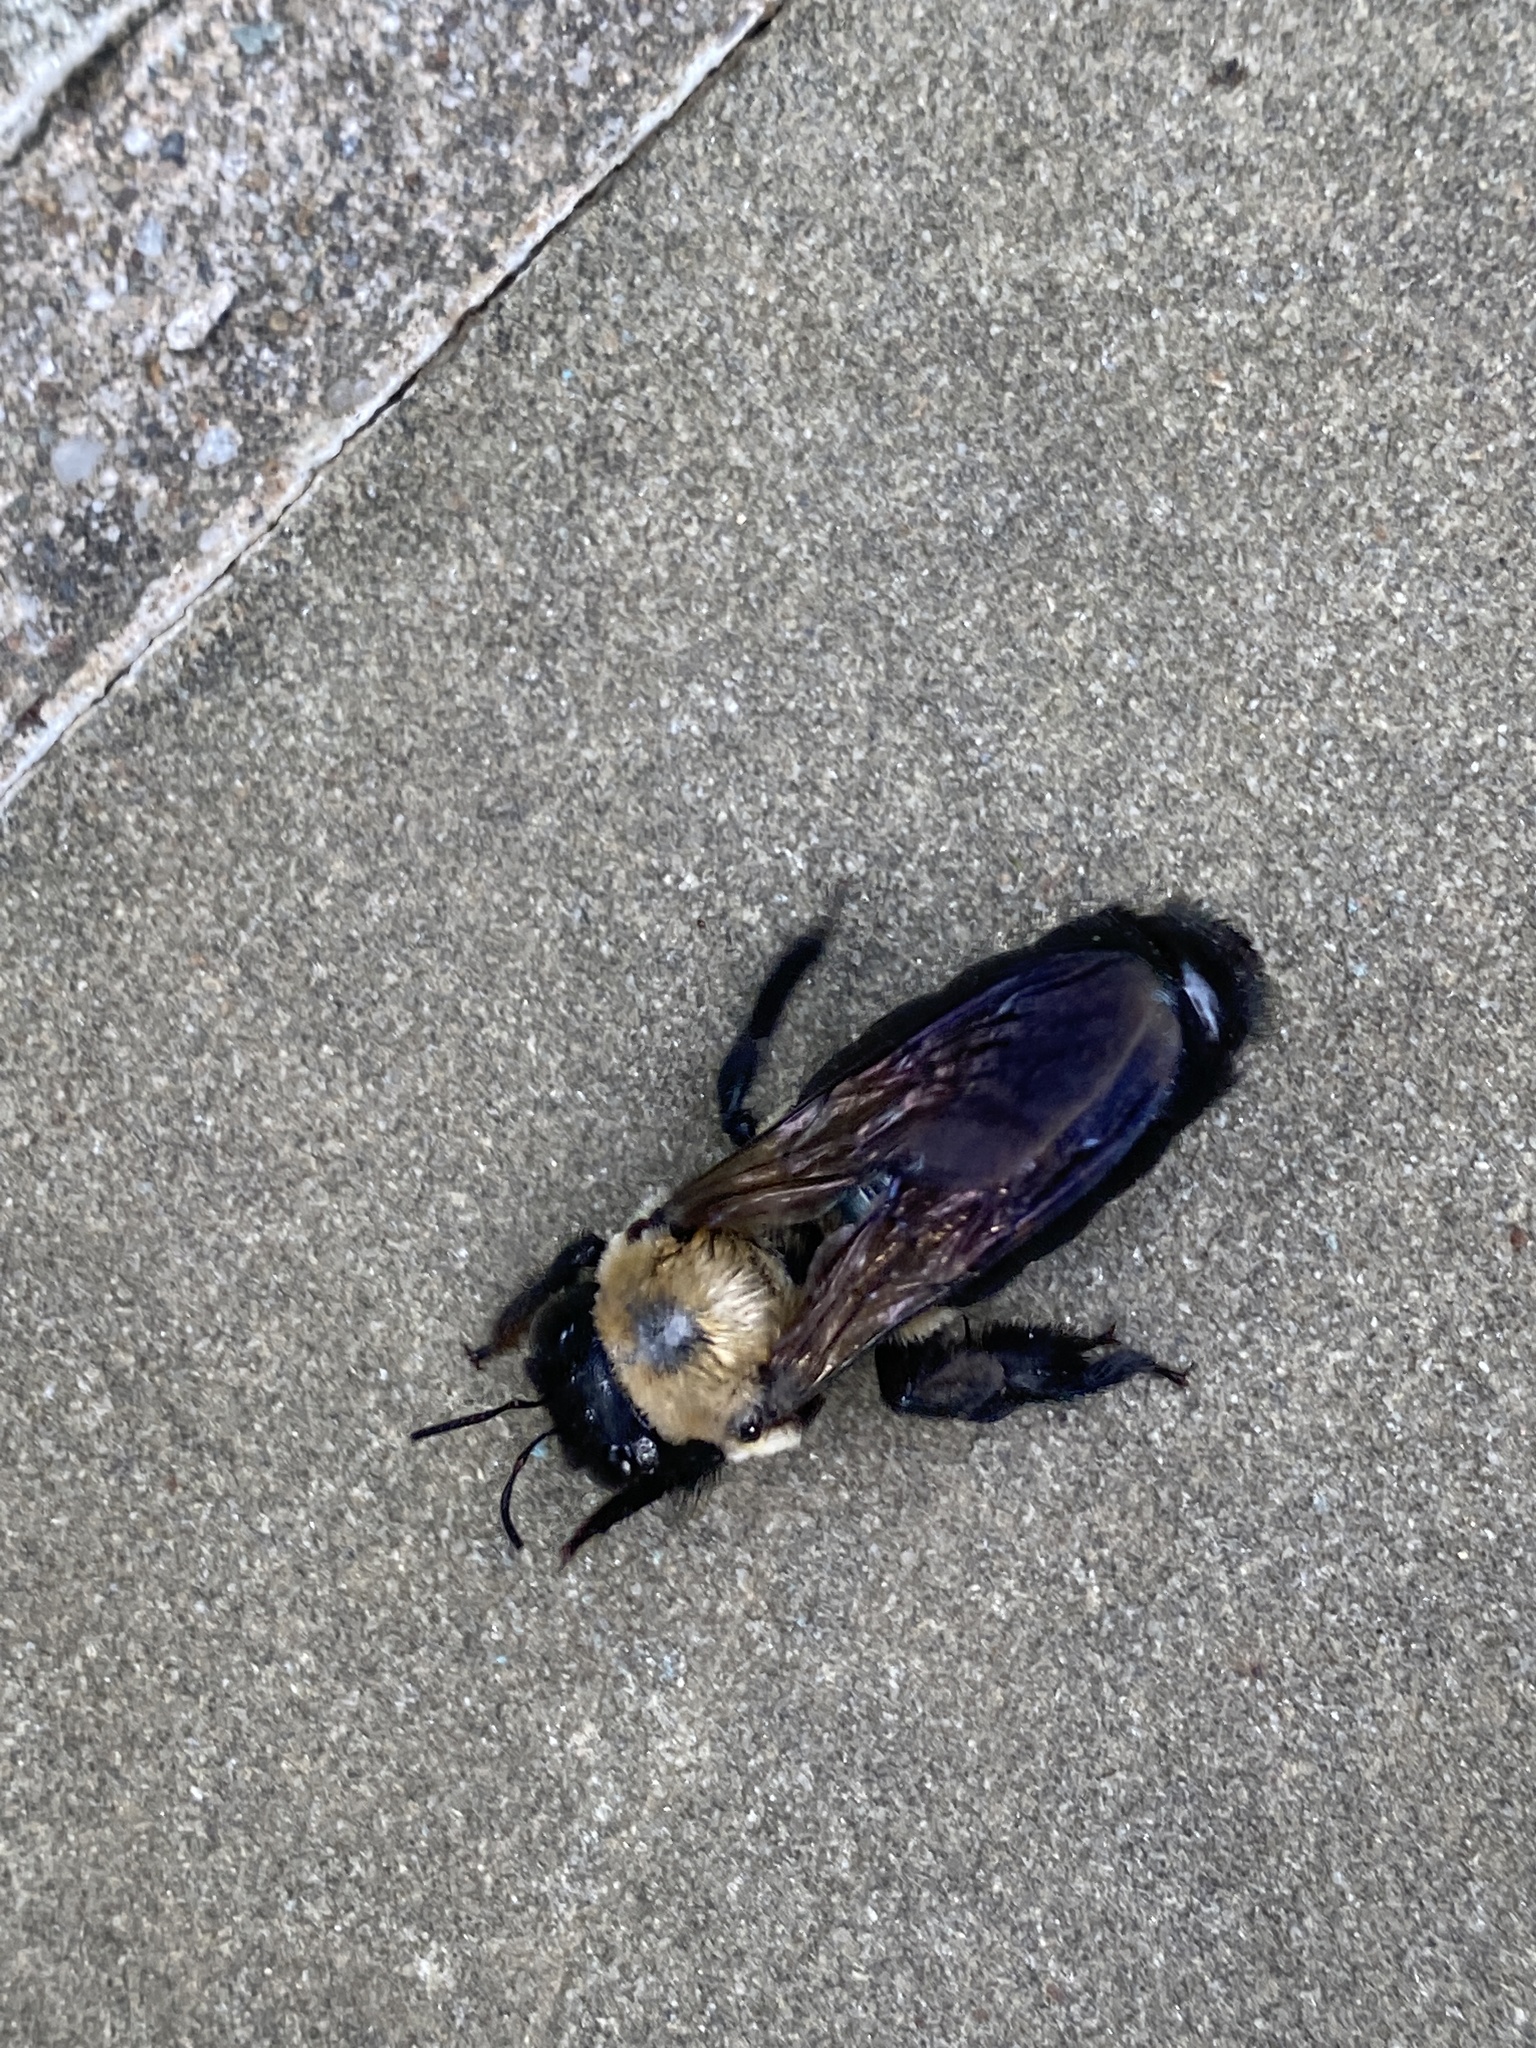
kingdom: Animalia
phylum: Arthropoda
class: Insecta
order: Hymenoptera
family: Apidae
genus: Xylocopa
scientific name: Xylocopa virginica
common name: Carpenter bee
